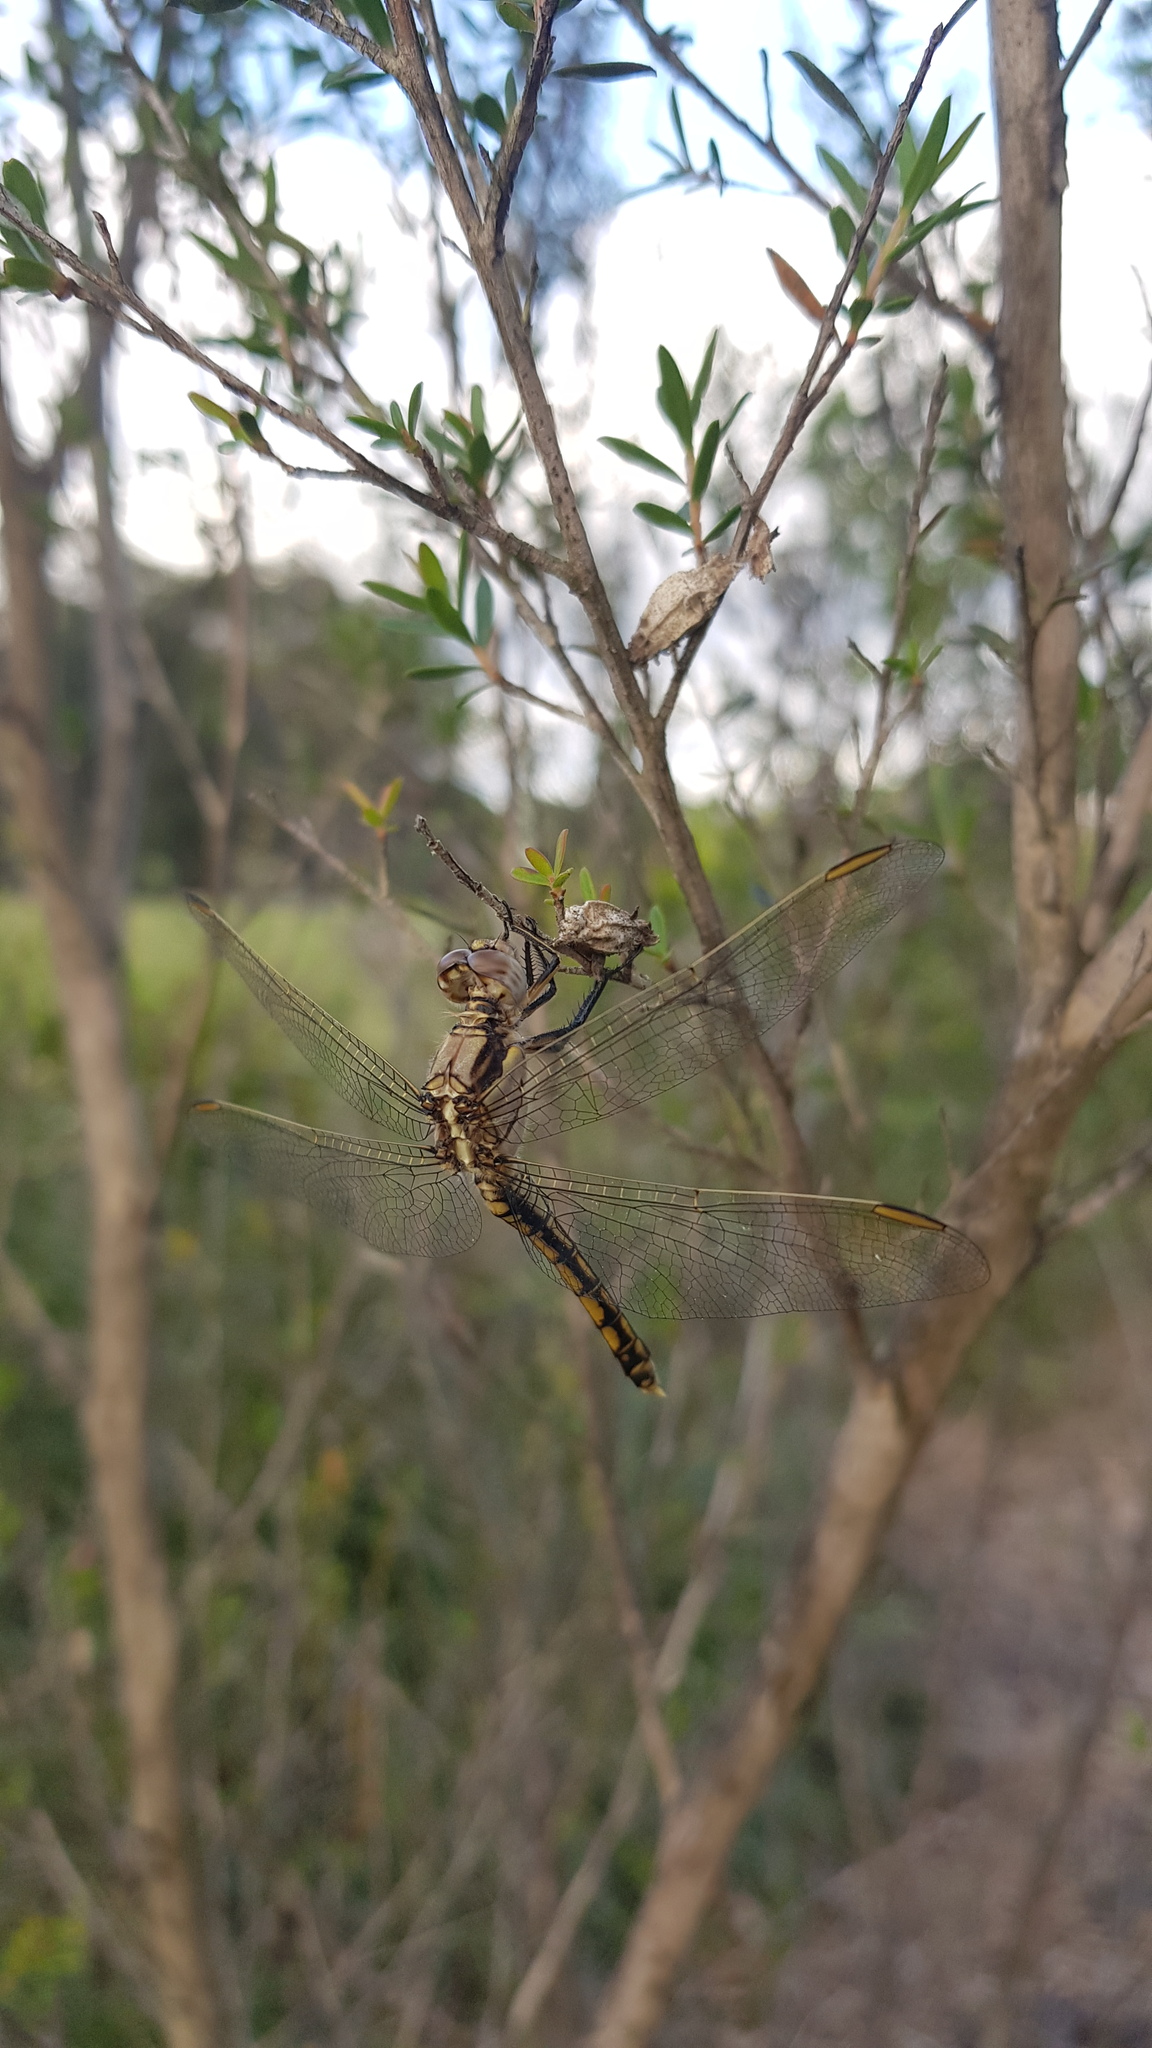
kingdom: Animalia
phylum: Arthropoda
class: Insecta
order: Odonata
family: Libellulidae
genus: Orthetrum
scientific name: Orthetrum caledonicum
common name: Blue skimmer
